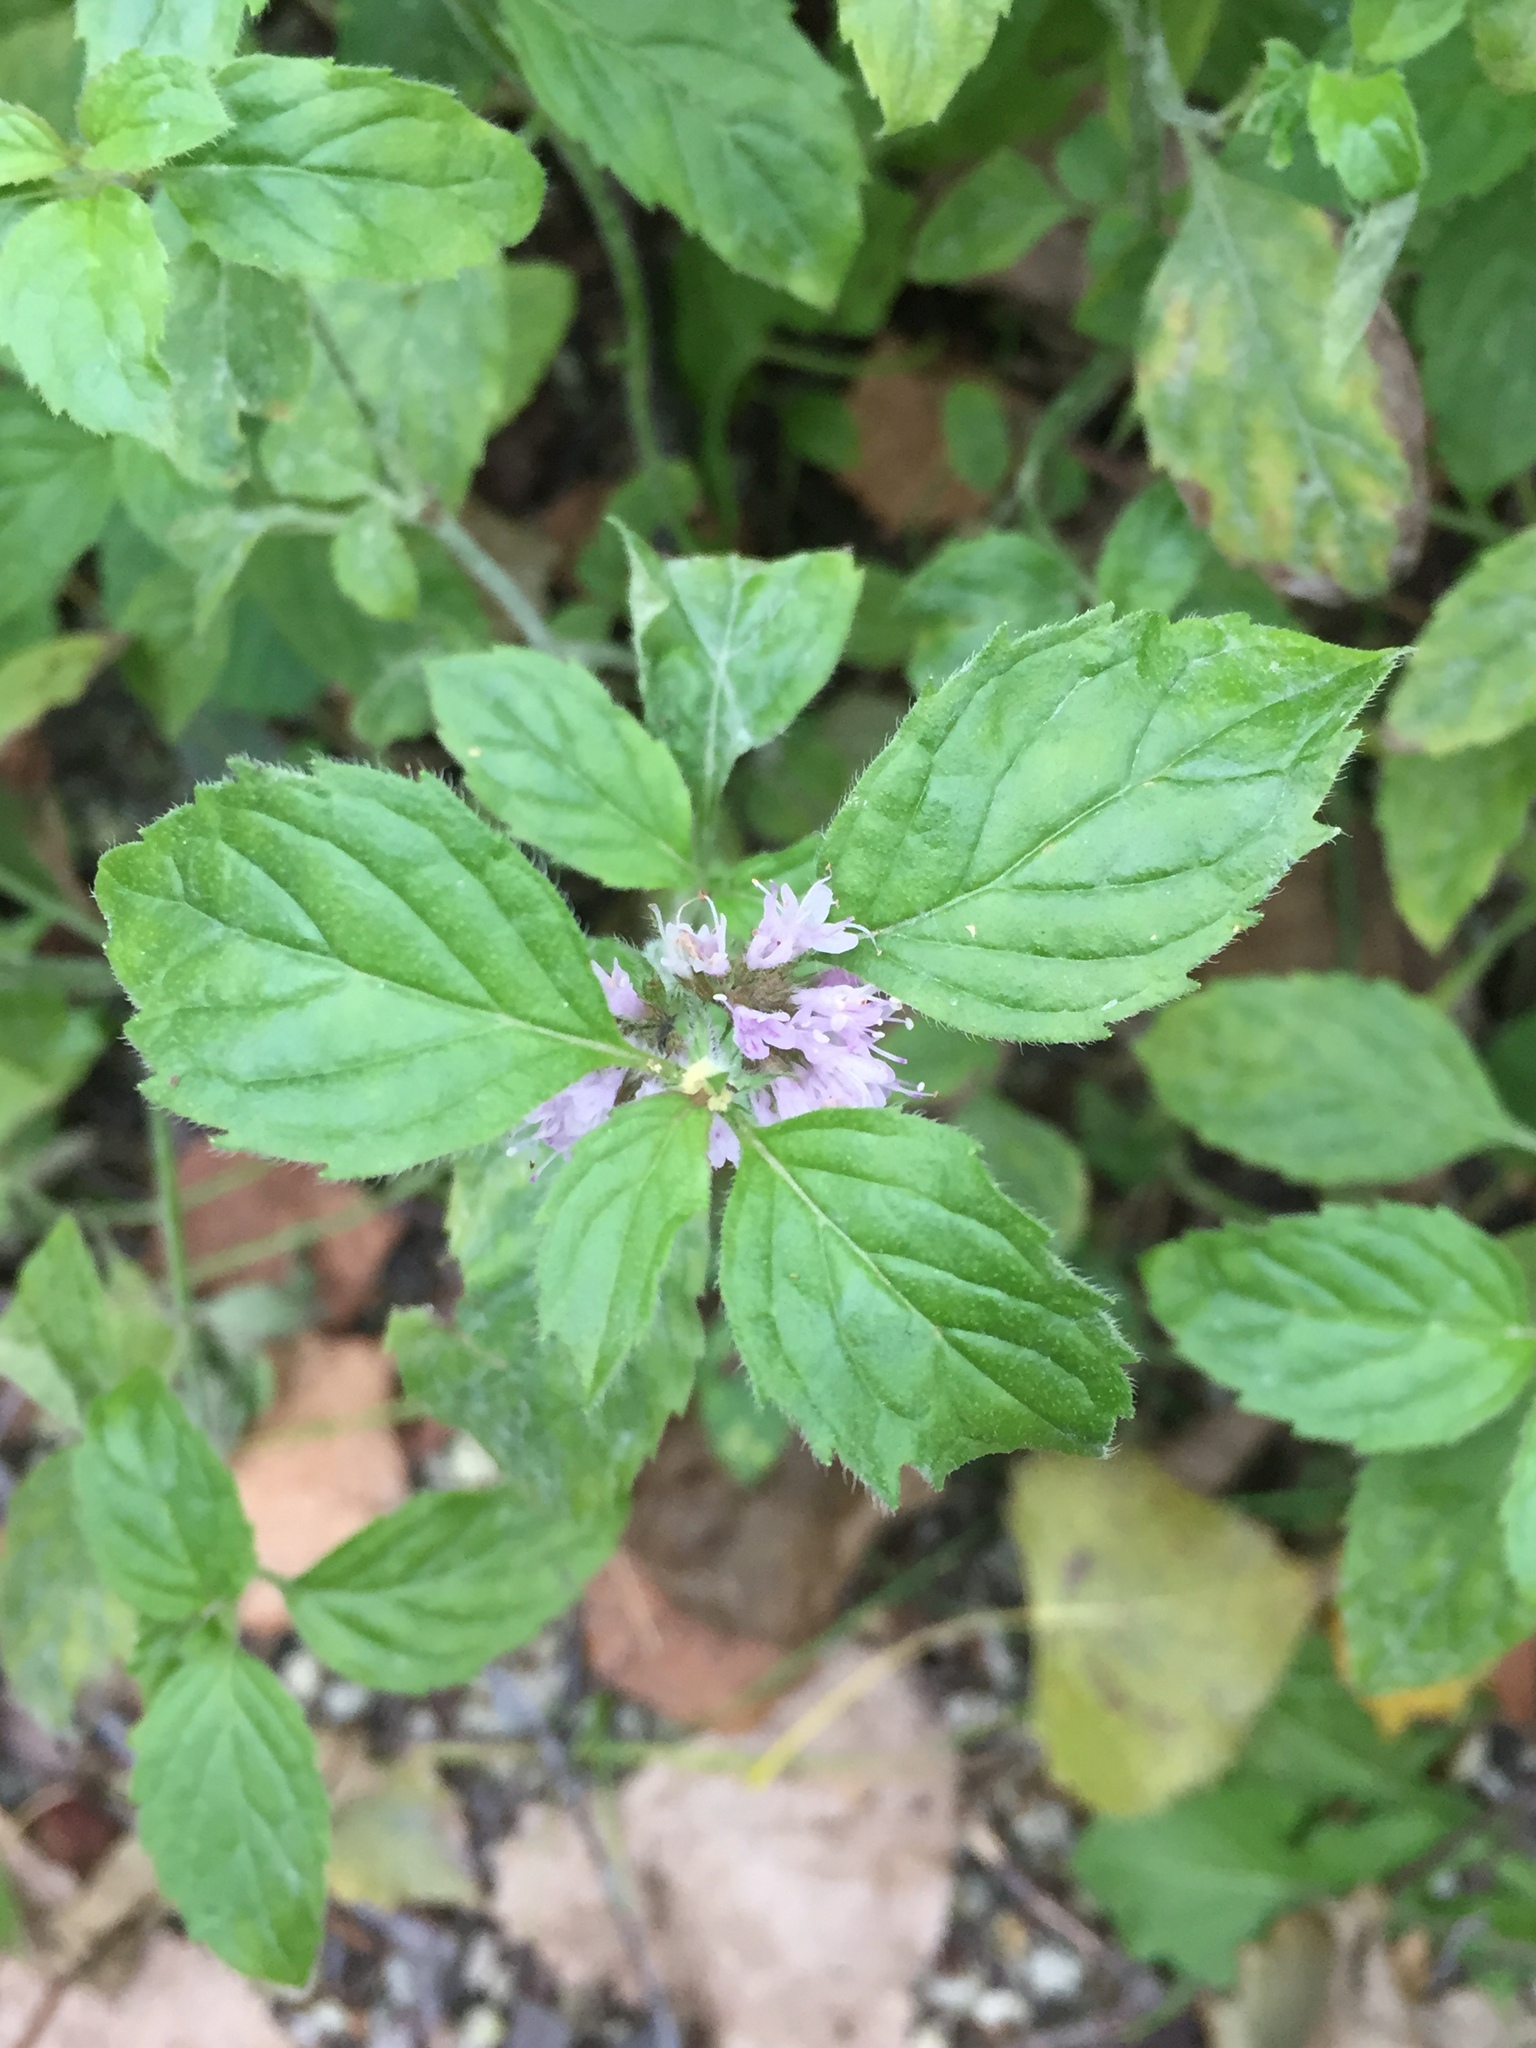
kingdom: Plantae
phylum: Tracheophyta
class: Magnoliopsida
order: Lamiales
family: Lamiaceae
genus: Mentha
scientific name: Mentha canadensis
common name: American corn mint
